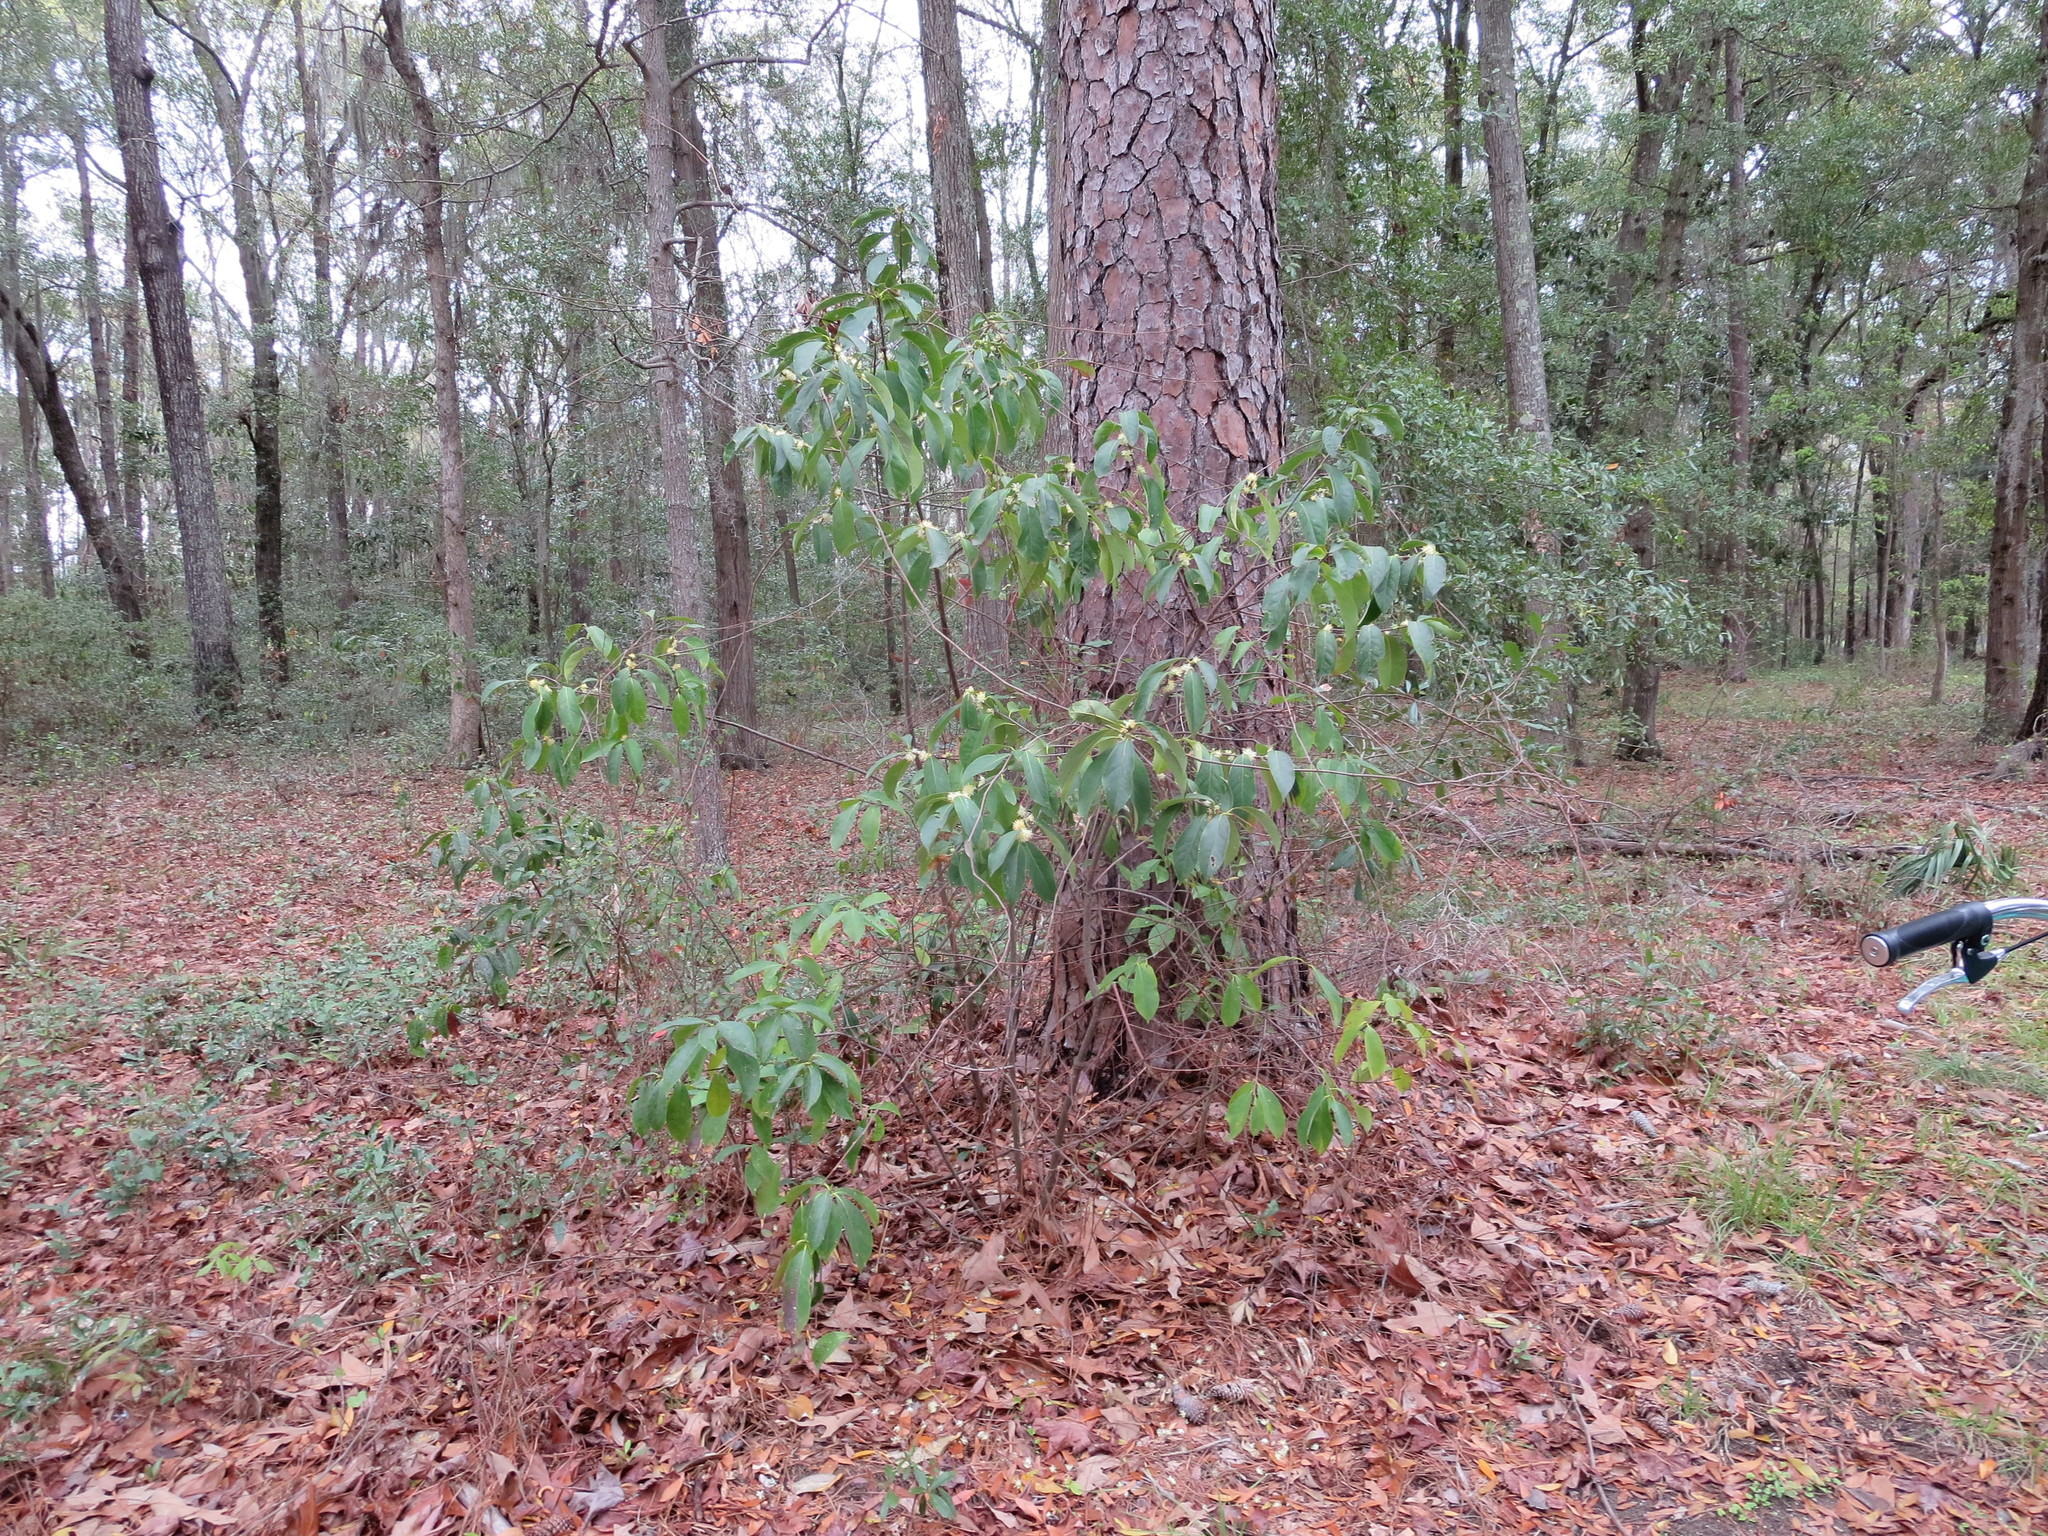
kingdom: Plantae
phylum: Tracheophyta
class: Magnoliopsida
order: Ericales
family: Symplocaceae
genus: Symplocos
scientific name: Symplocos tinctoria
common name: Horse-sugar
